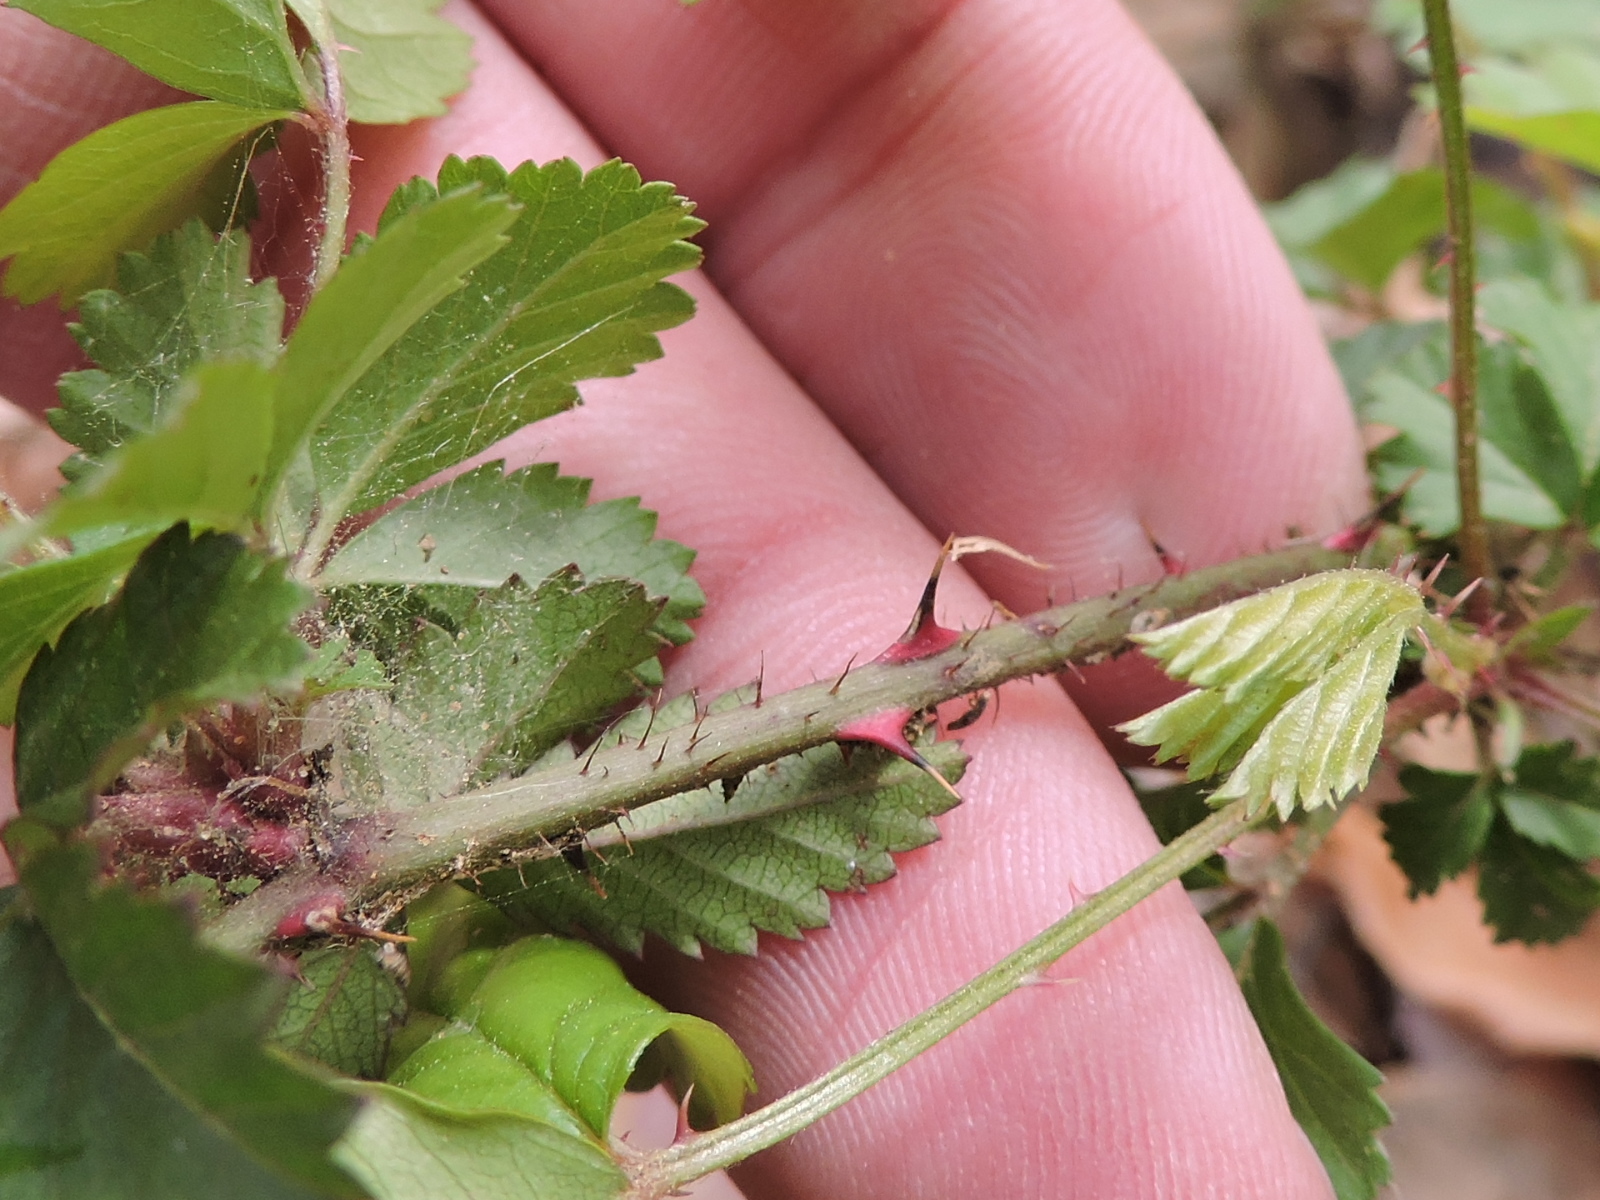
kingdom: Plantae
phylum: Tracheophyta
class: Magnoliopsida
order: Rosales
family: Rosaceae
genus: Rubus
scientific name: Rubus trivialis
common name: Southern dewberry
